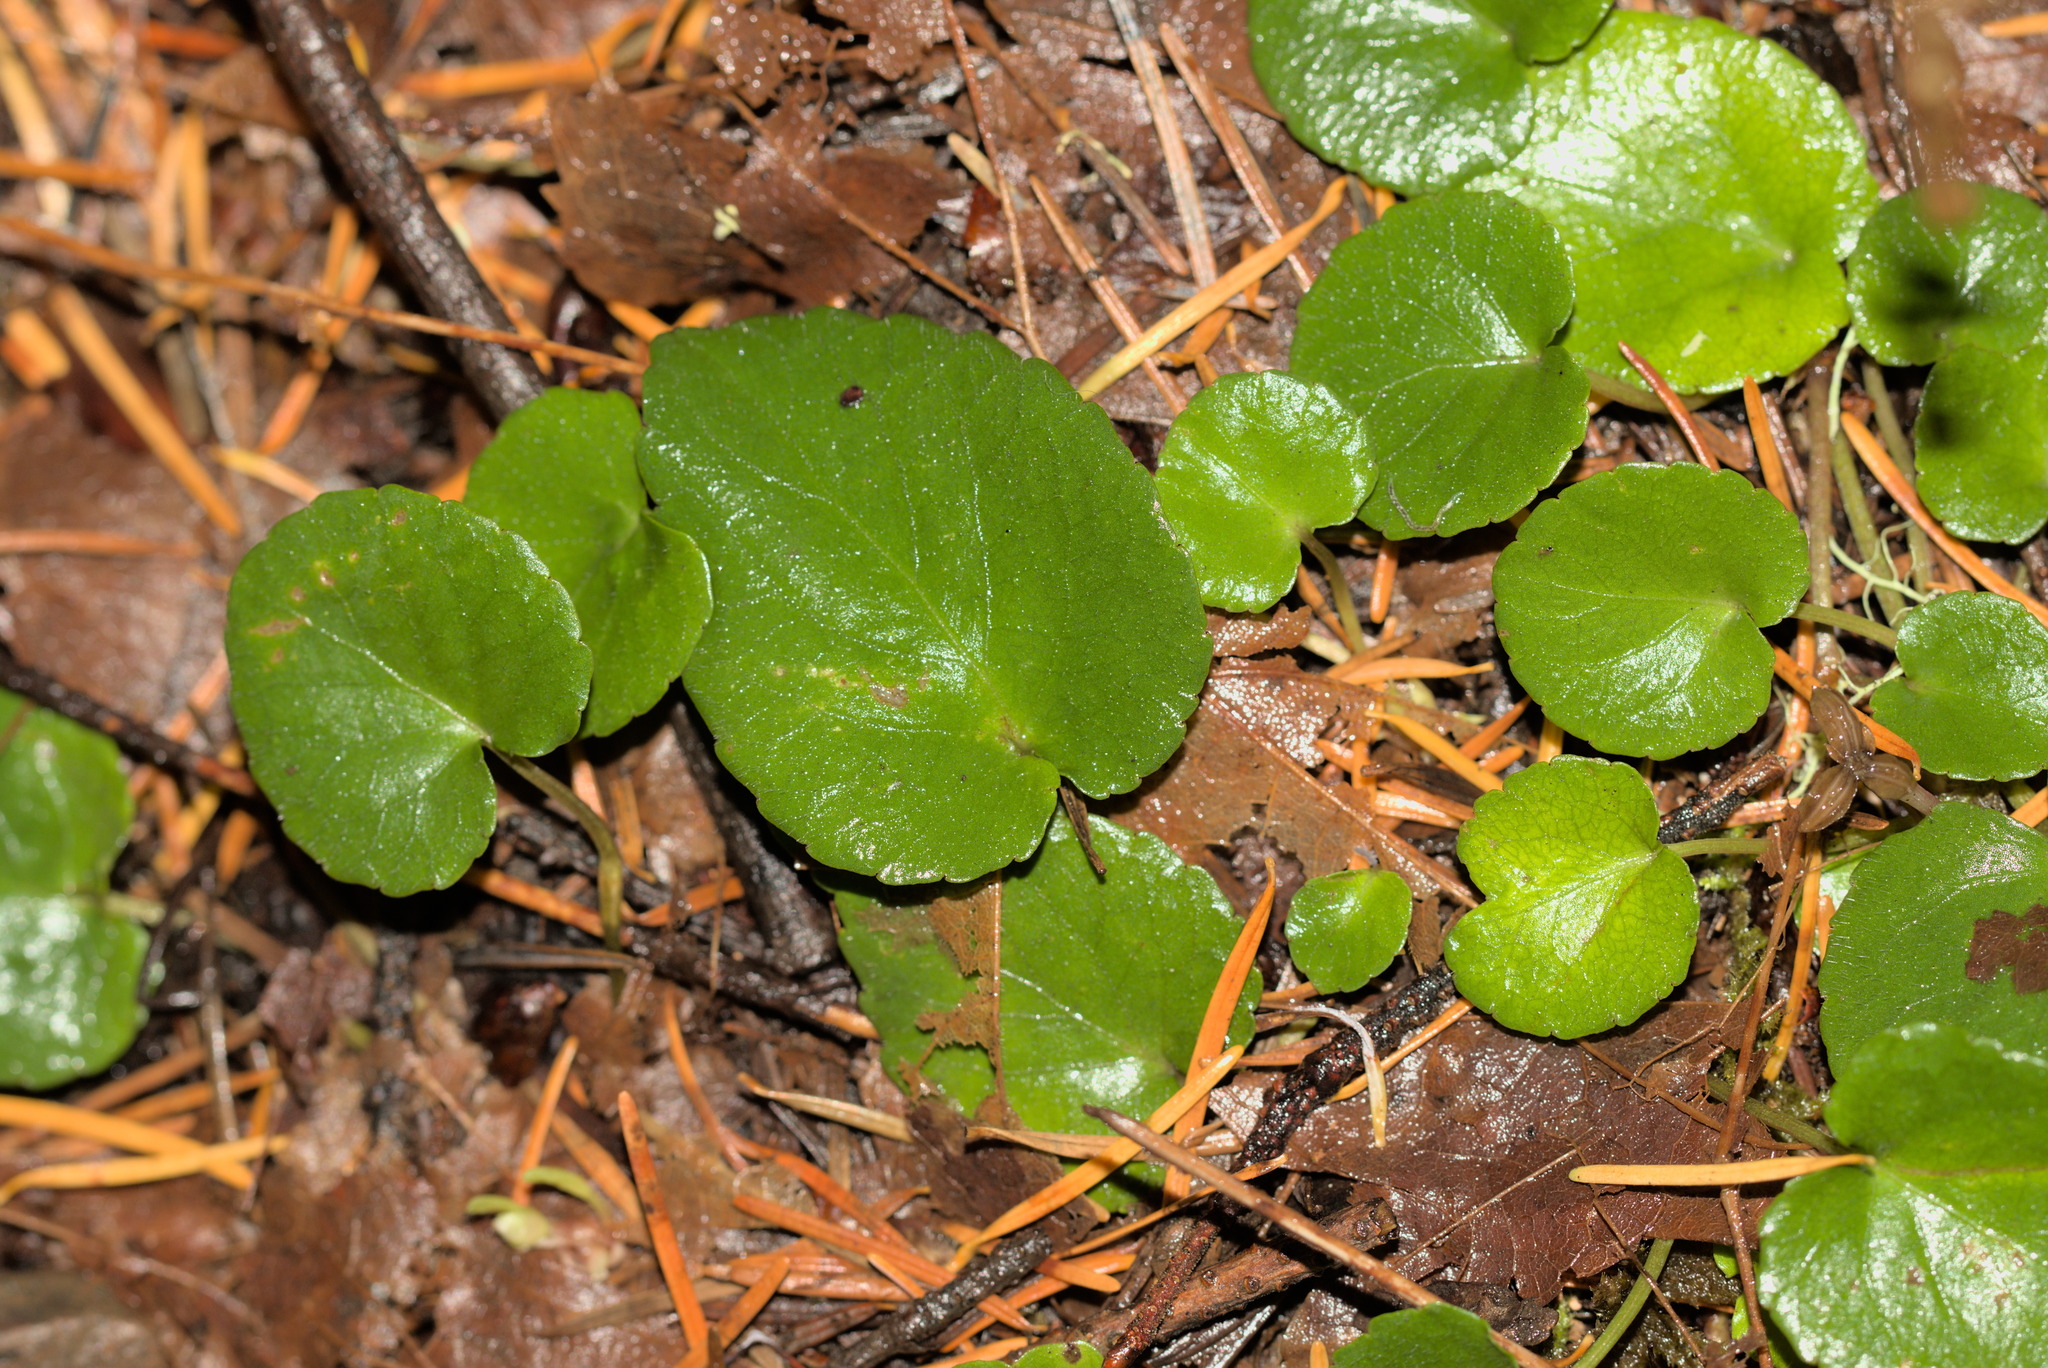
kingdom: Plantae
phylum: Tracheophyta
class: Magnoliopsida
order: Malpighiales
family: Violaceae
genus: Viola
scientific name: Viola sempervirens
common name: Evergreen violet
